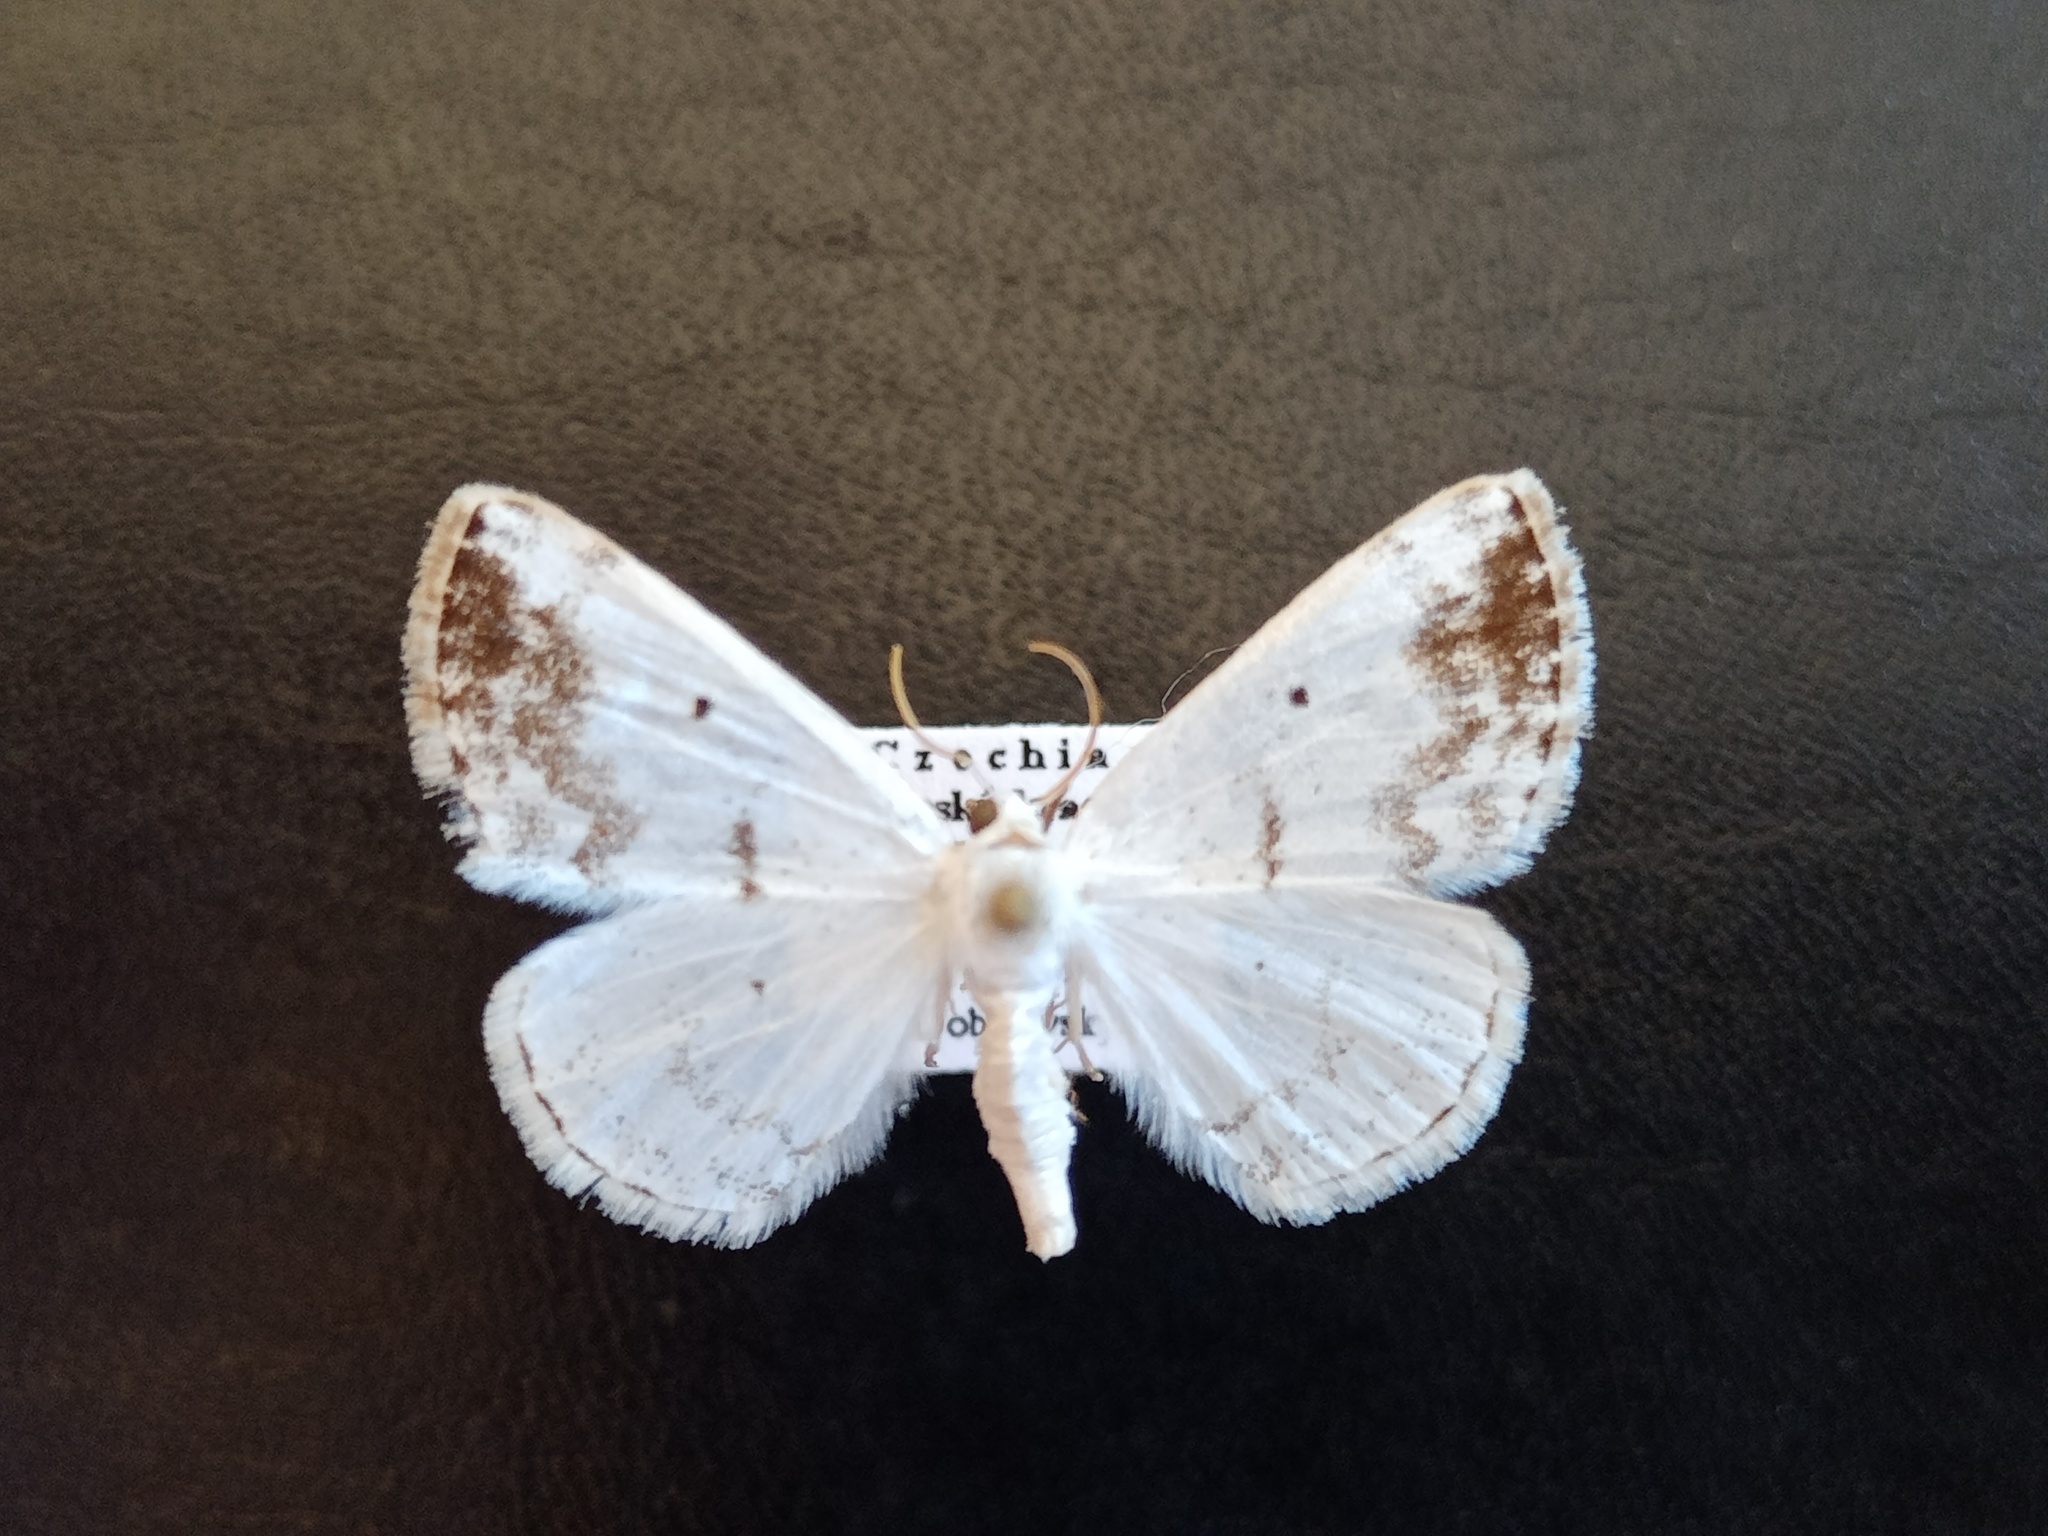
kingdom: Animalia
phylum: Arthropoda
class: Insecta
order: Lepidoptera
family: Geometridae
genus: Lomographa
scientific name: Lomographa temerata
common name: Clouded silver
